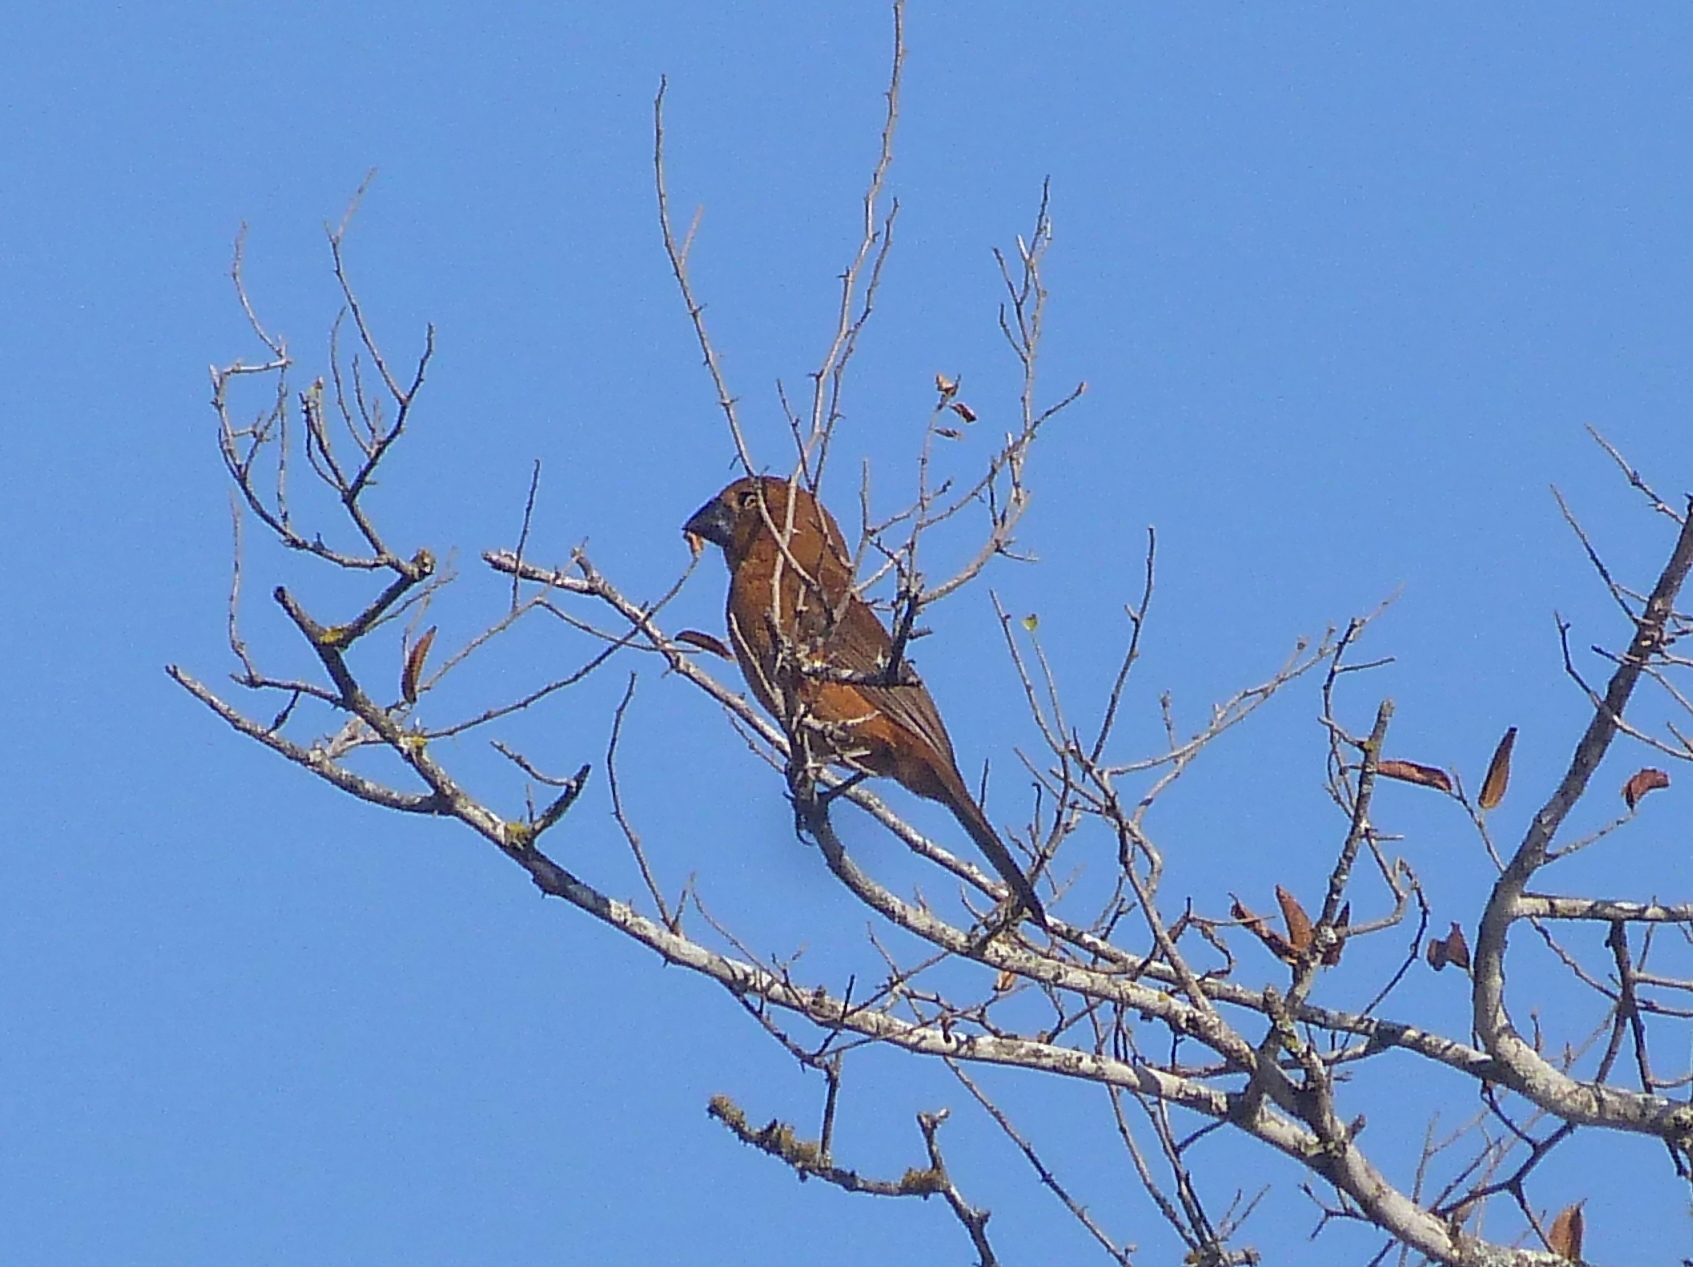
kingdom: Animalia
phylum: Chordata
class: Aves
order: Passeriformes
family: Cardinalidae
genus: Cyanoloxia
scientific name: Cyanoloxia brissonii
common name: Ultramarine grosbeak
